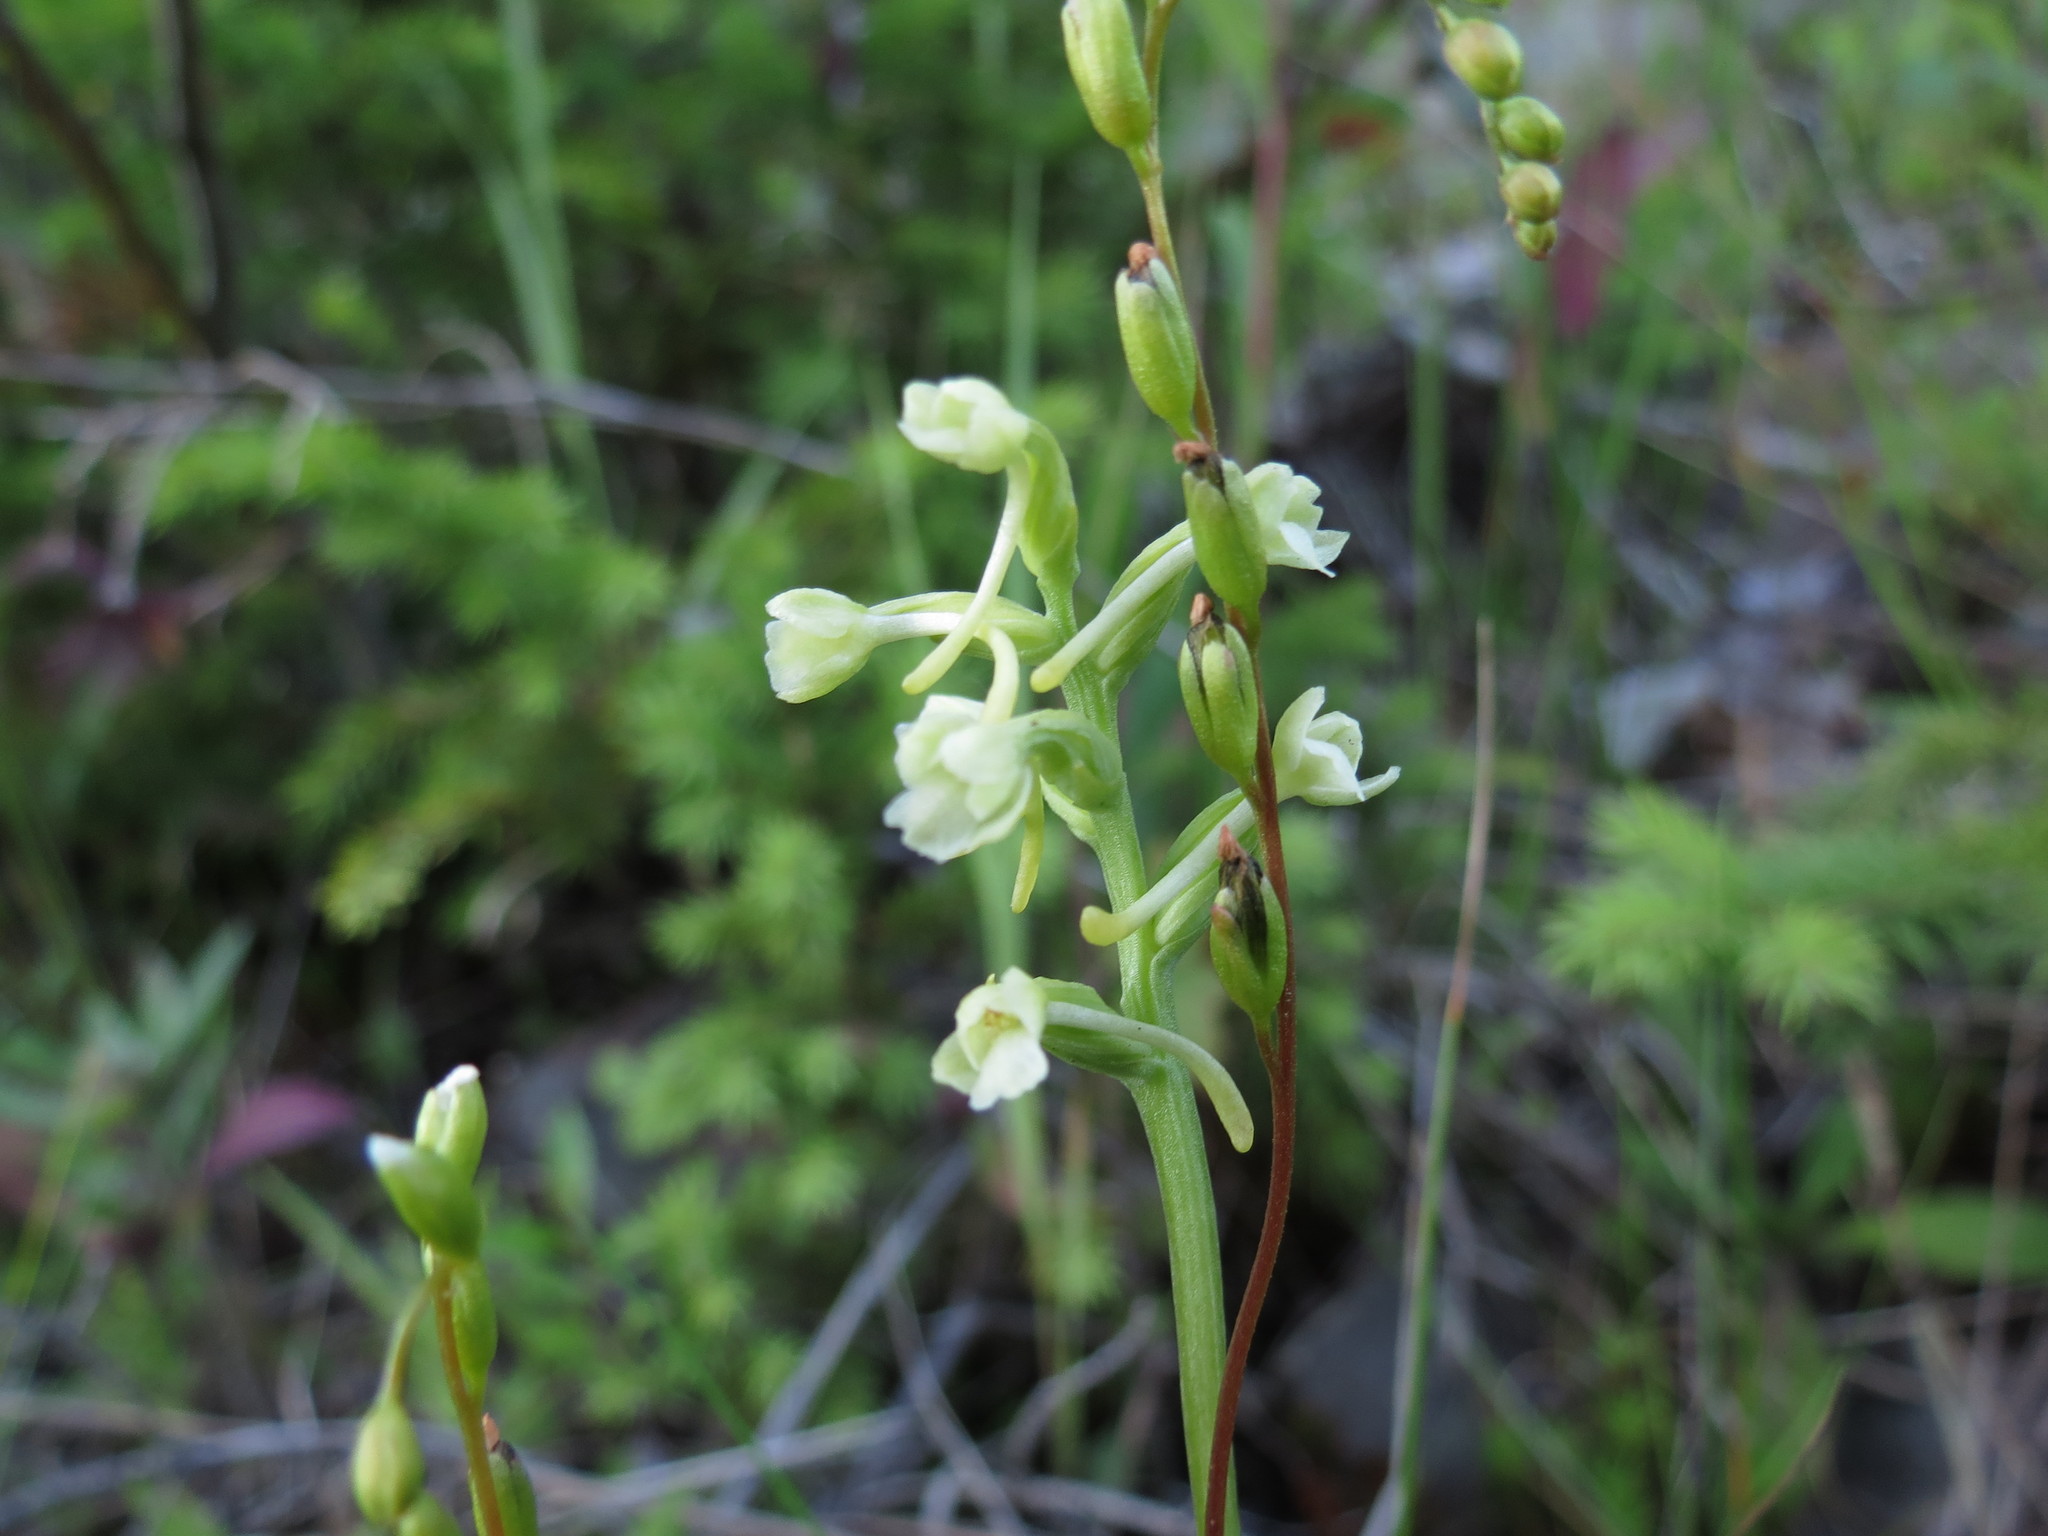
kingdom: Plantae
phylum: Tracheophyta
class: Liliopsida
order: Asparagales
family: Orchidaceae
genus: Platanthera
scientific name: Platanthera clavellata
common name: Club-spur orchid
